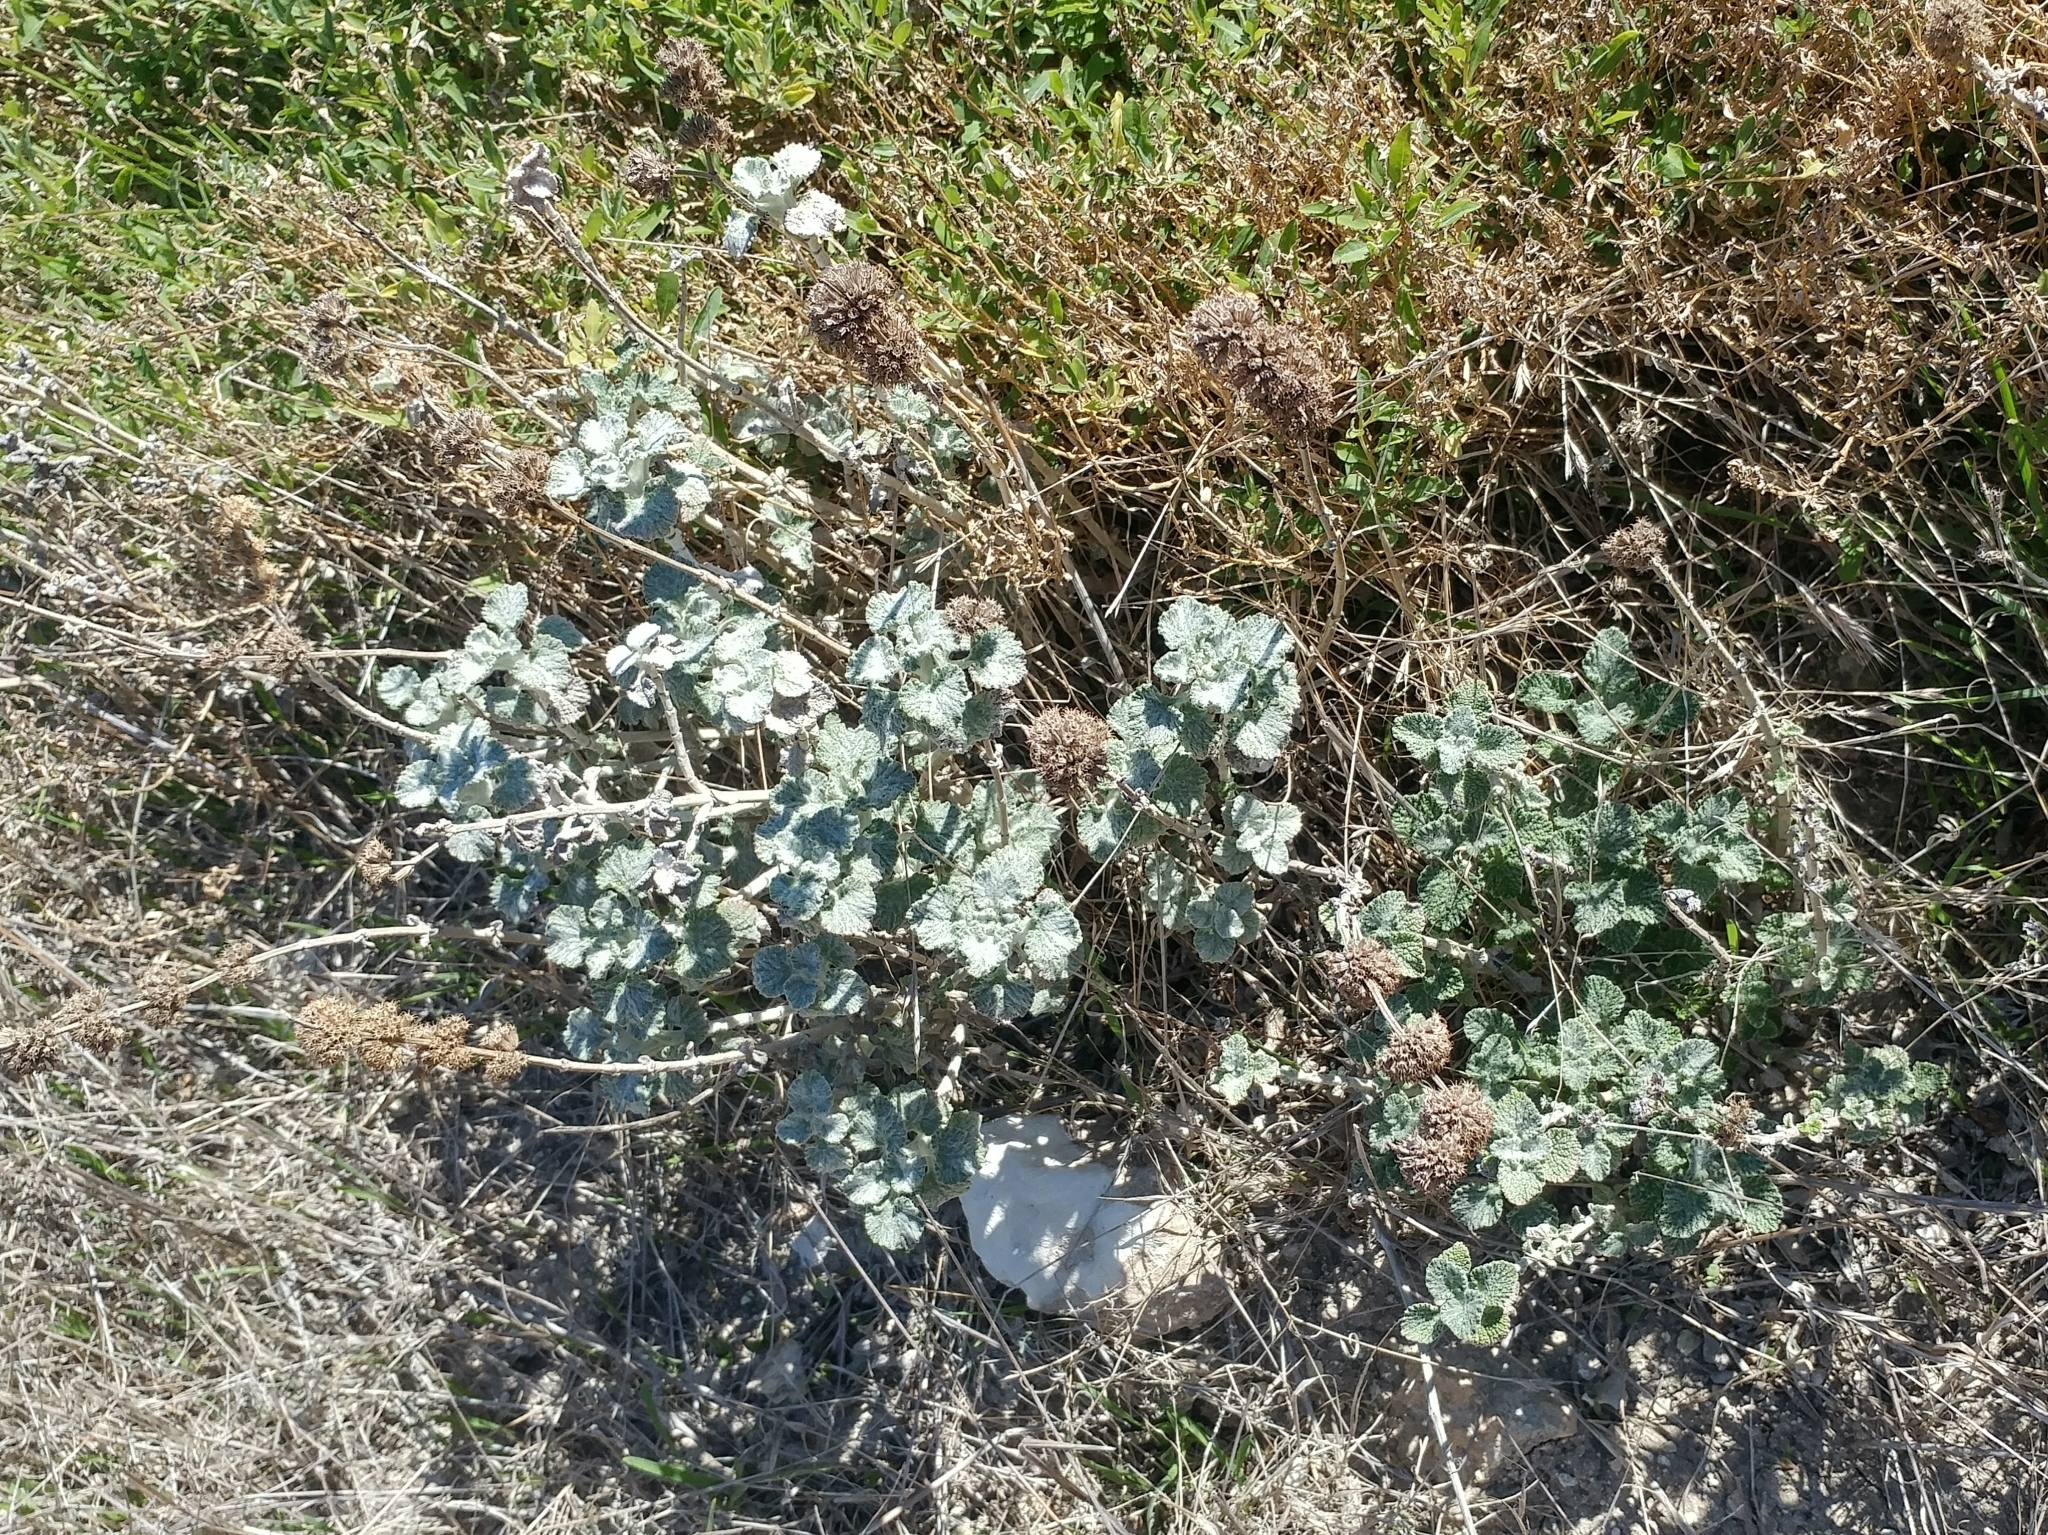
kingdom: Plantae
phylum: Tracheophyta
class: Magnoliopsida
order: Lamiales
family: Lamiaceae
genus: Marrubium
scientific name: Marrubium vulgare
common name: Horehound
